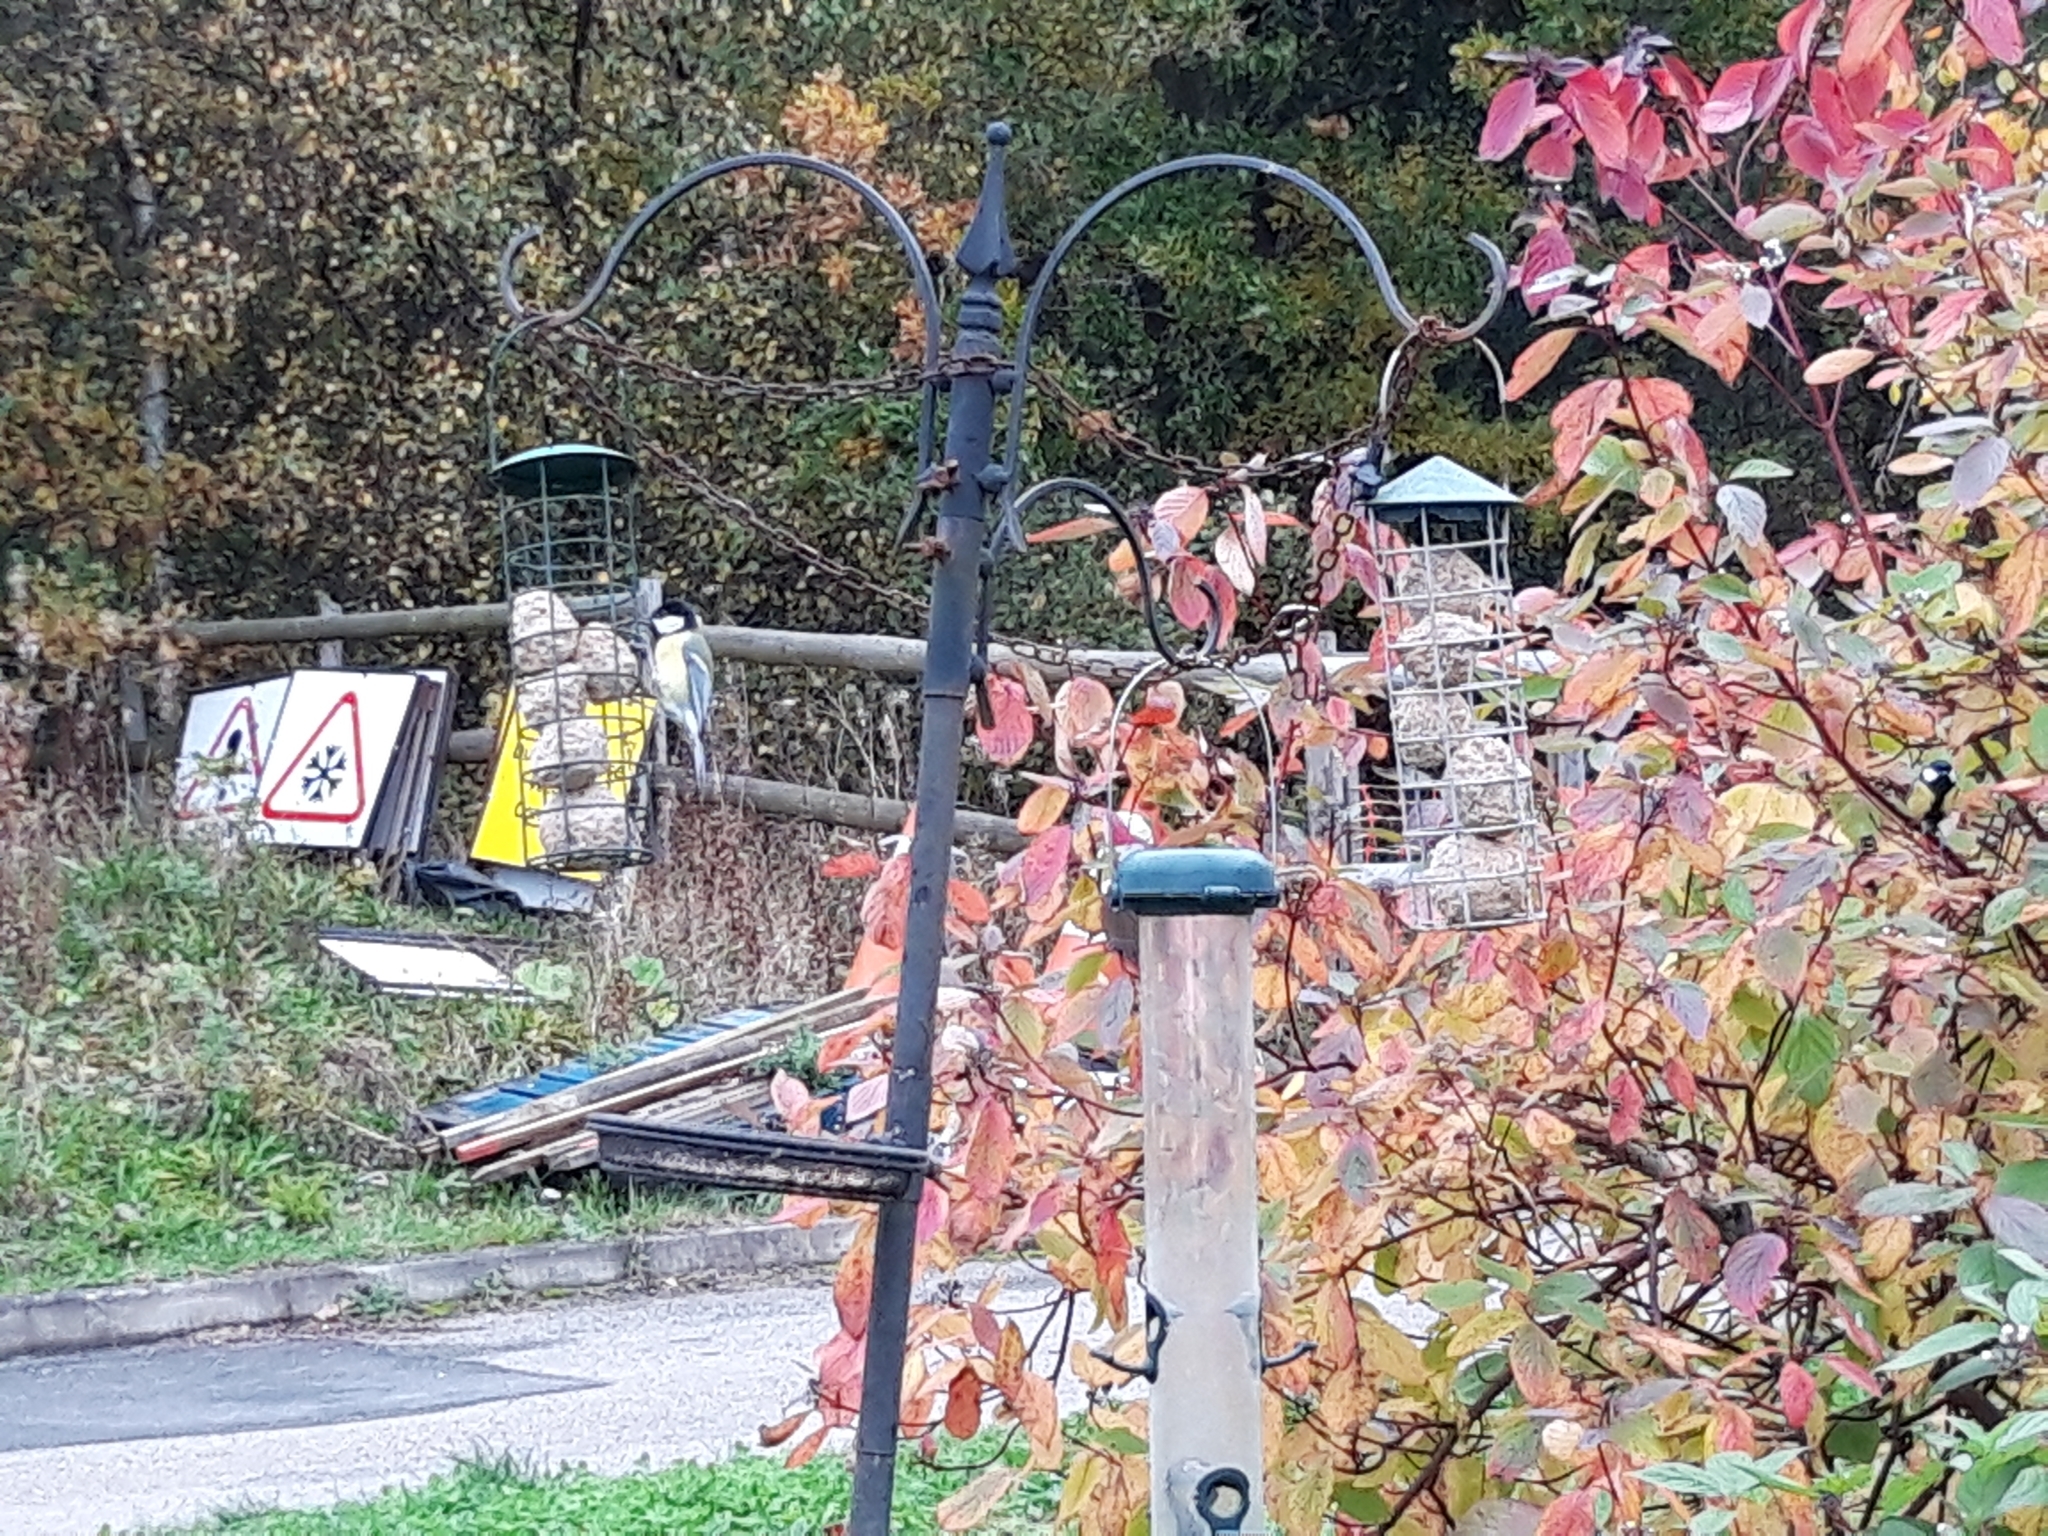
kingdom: Animalia
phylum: Chordata
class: Aves
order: Passeriformes
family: Paridae
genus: Parus
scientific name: Parus major
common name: Great tit
